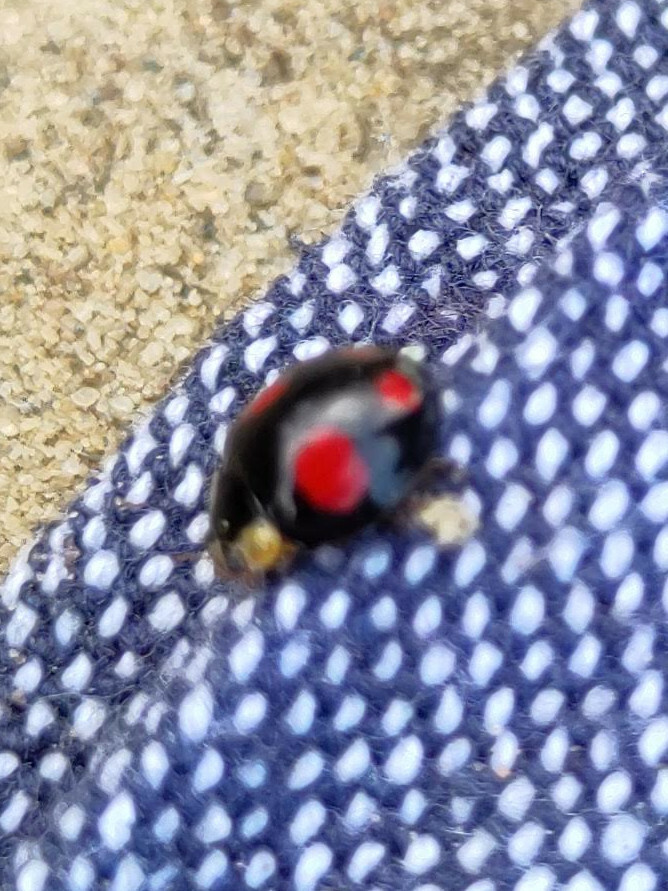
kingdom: Animalia
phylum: Arthropoda
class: Insecta
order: Coleoptera
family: Coccinellidae
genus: Harmonia
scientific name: Harmonia axyridis
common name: Harlequin ladybird
